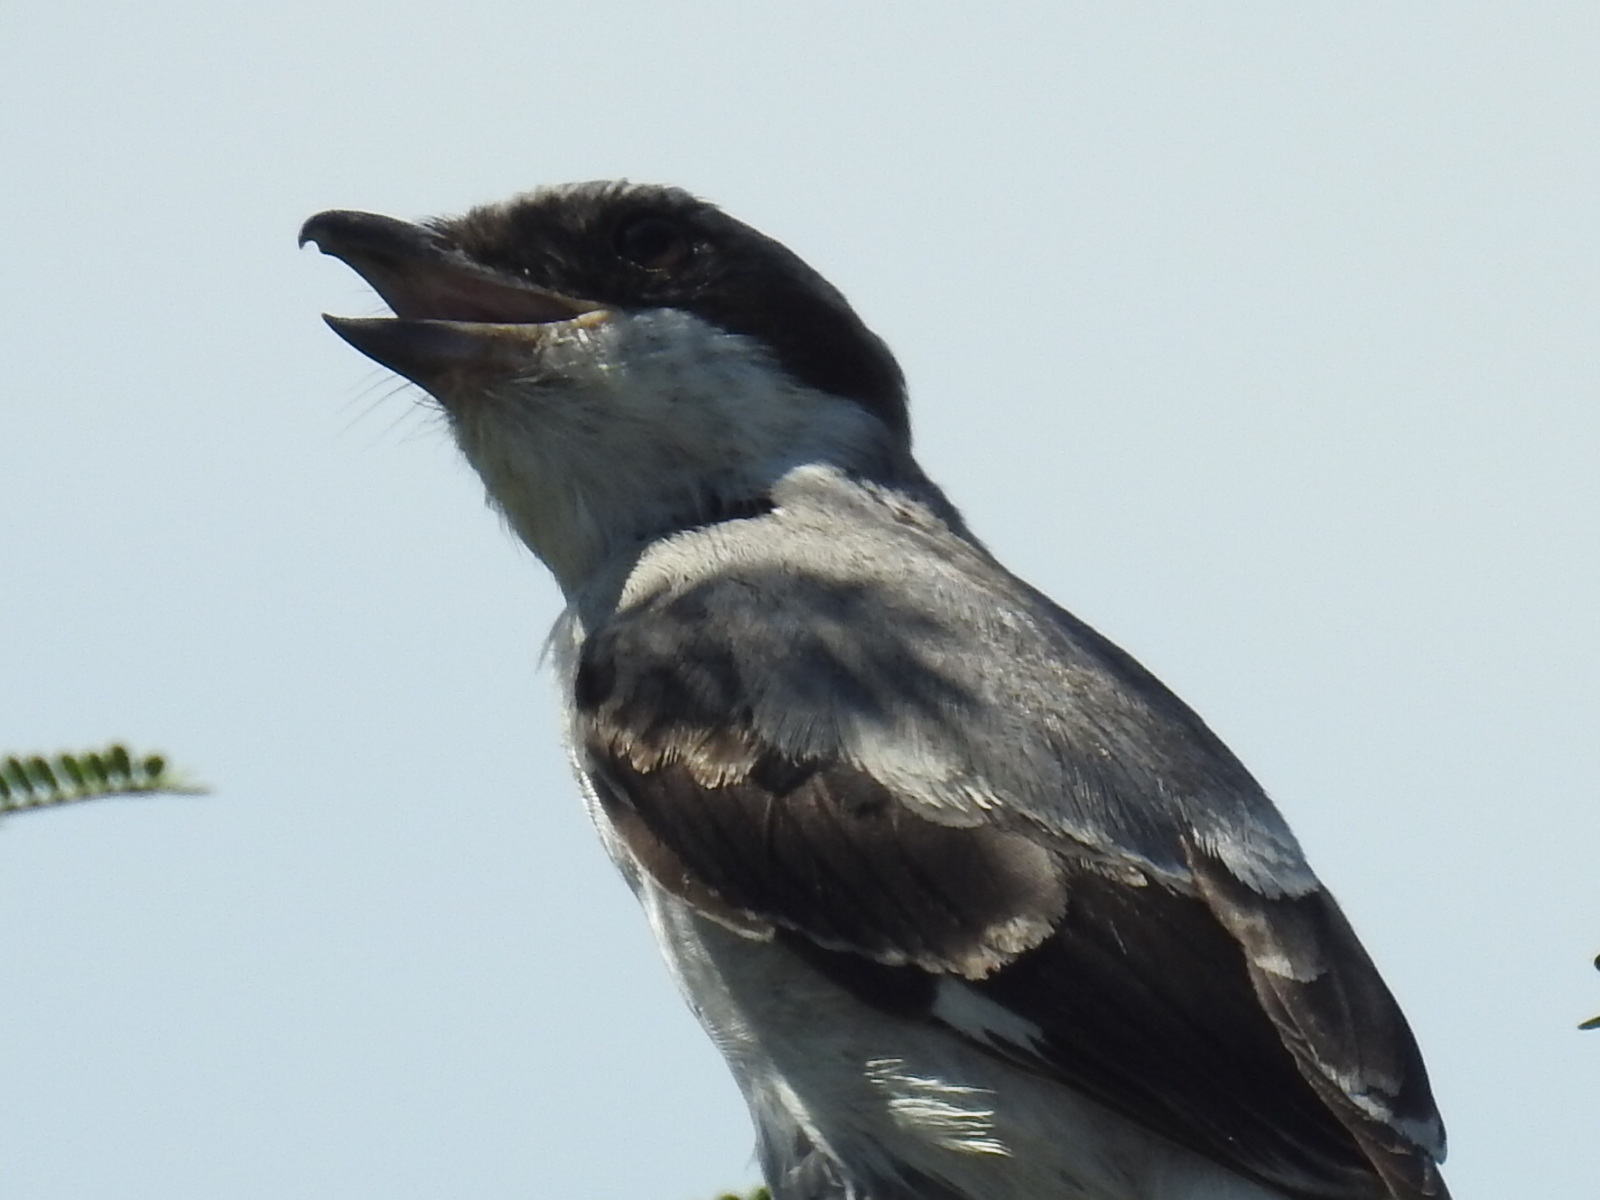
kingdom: Animalia
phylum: Chordata
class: Aves
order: Passeriformes
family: Laniidae
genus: Lanius
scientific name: Lanius ludovicianus
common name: Loggerhead shrike
